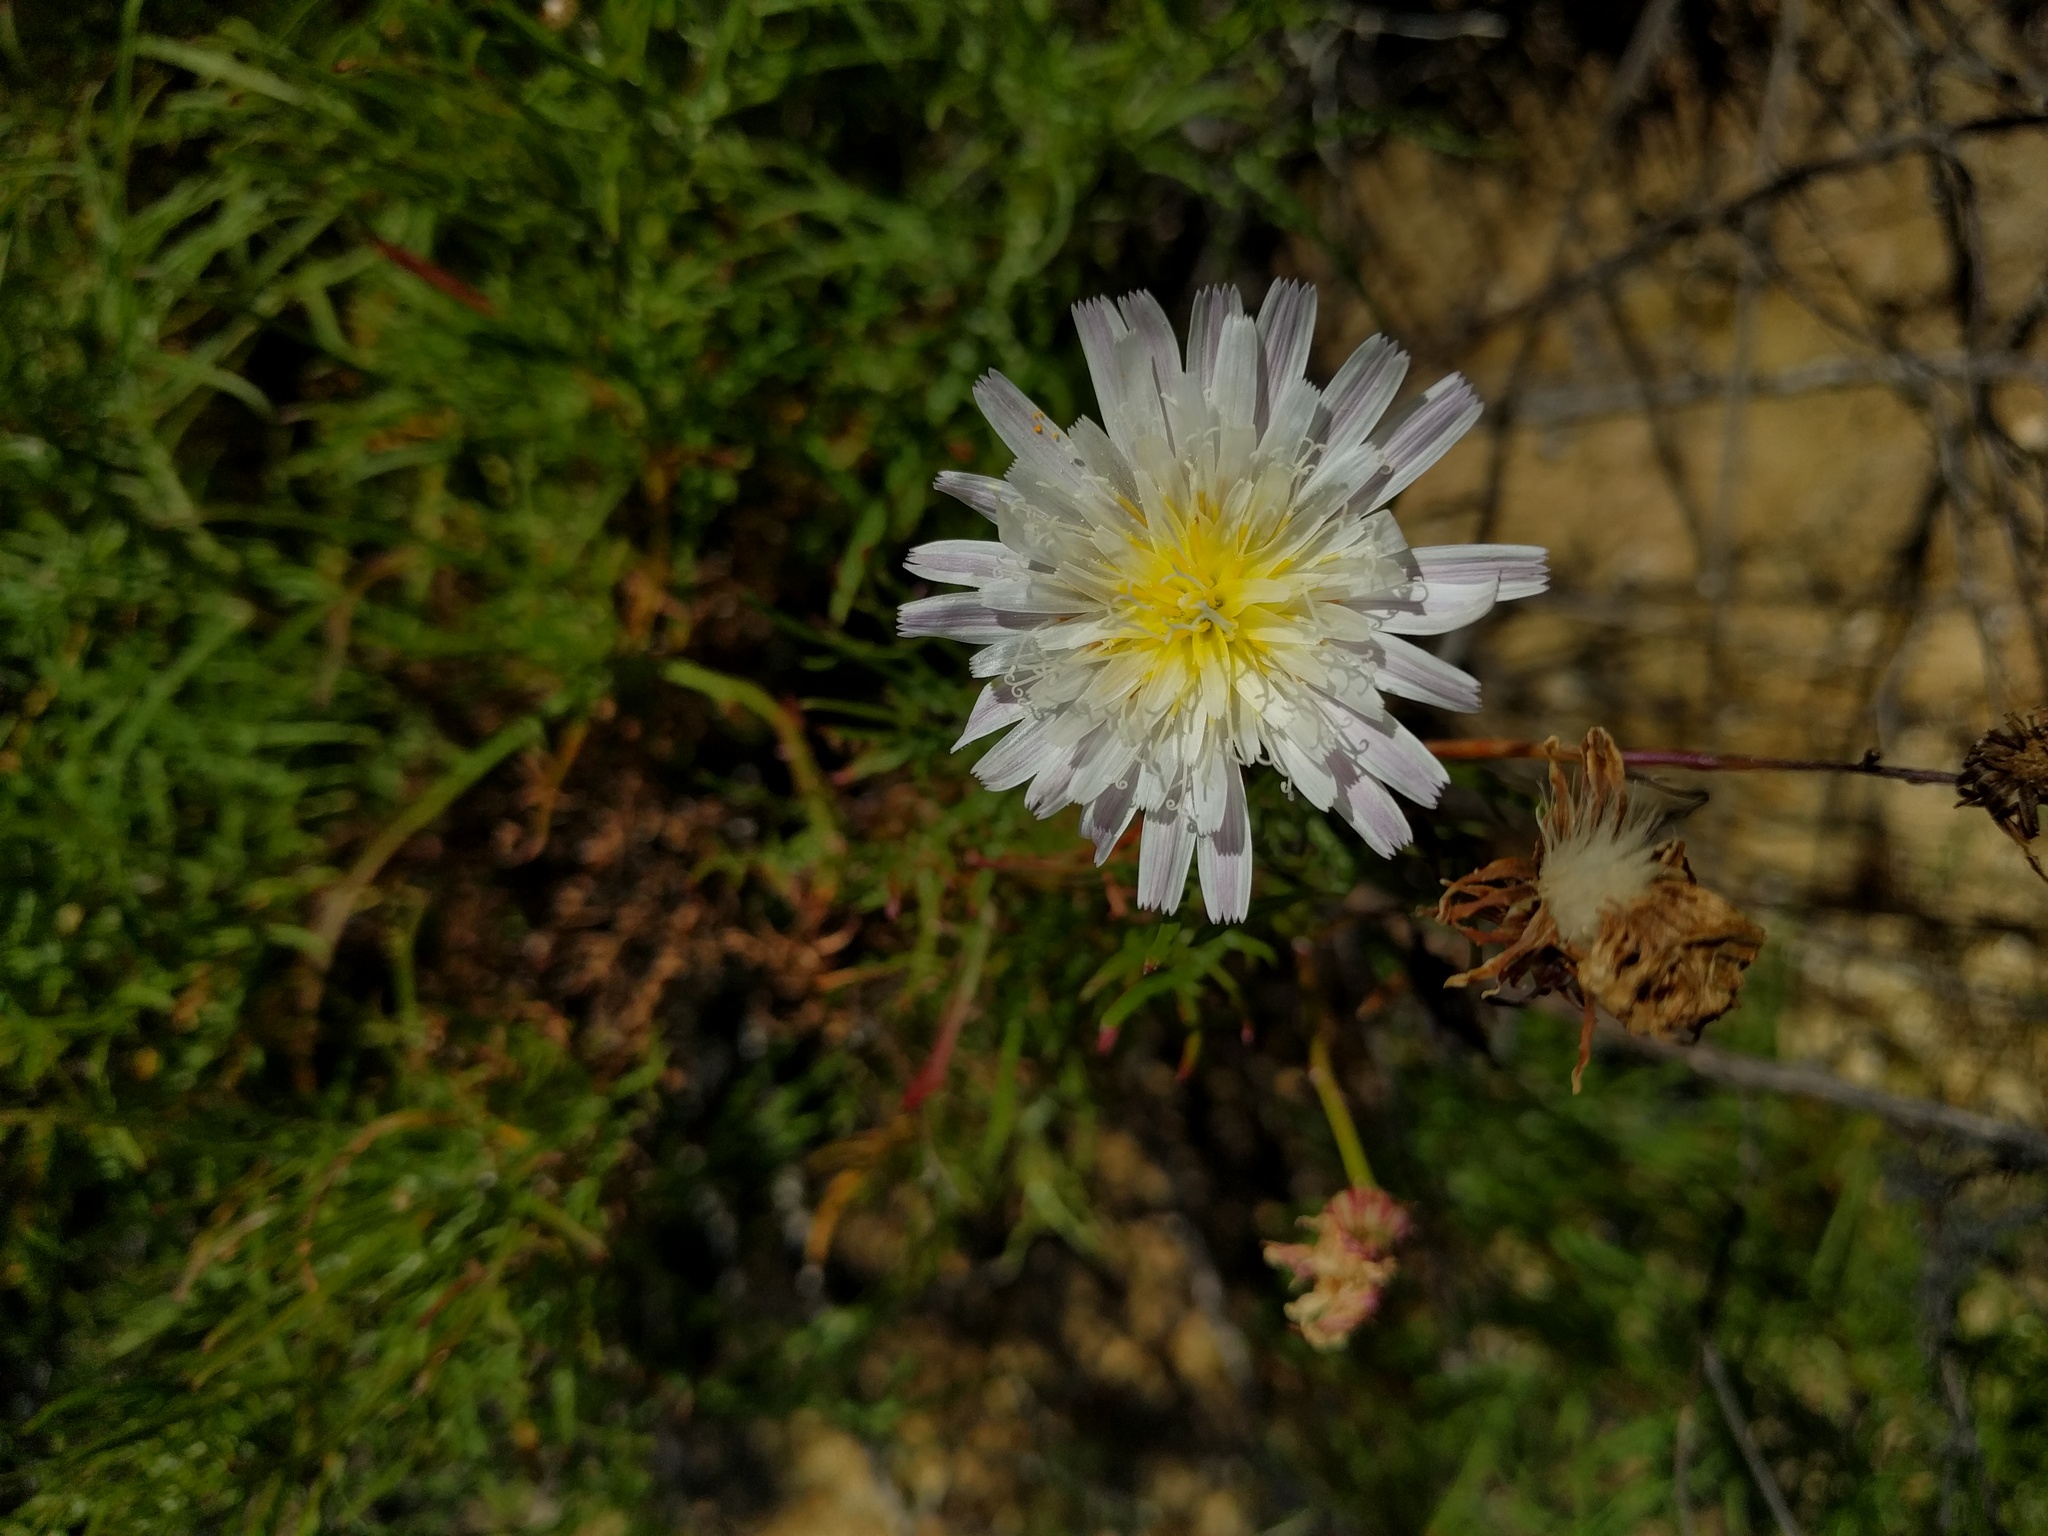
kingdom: Plantae
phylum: Tracheophyta
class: Magnoliopsida
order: Asterales
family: Asteraceae
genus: Malacothrix
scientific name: Malacothrix saxatilis
